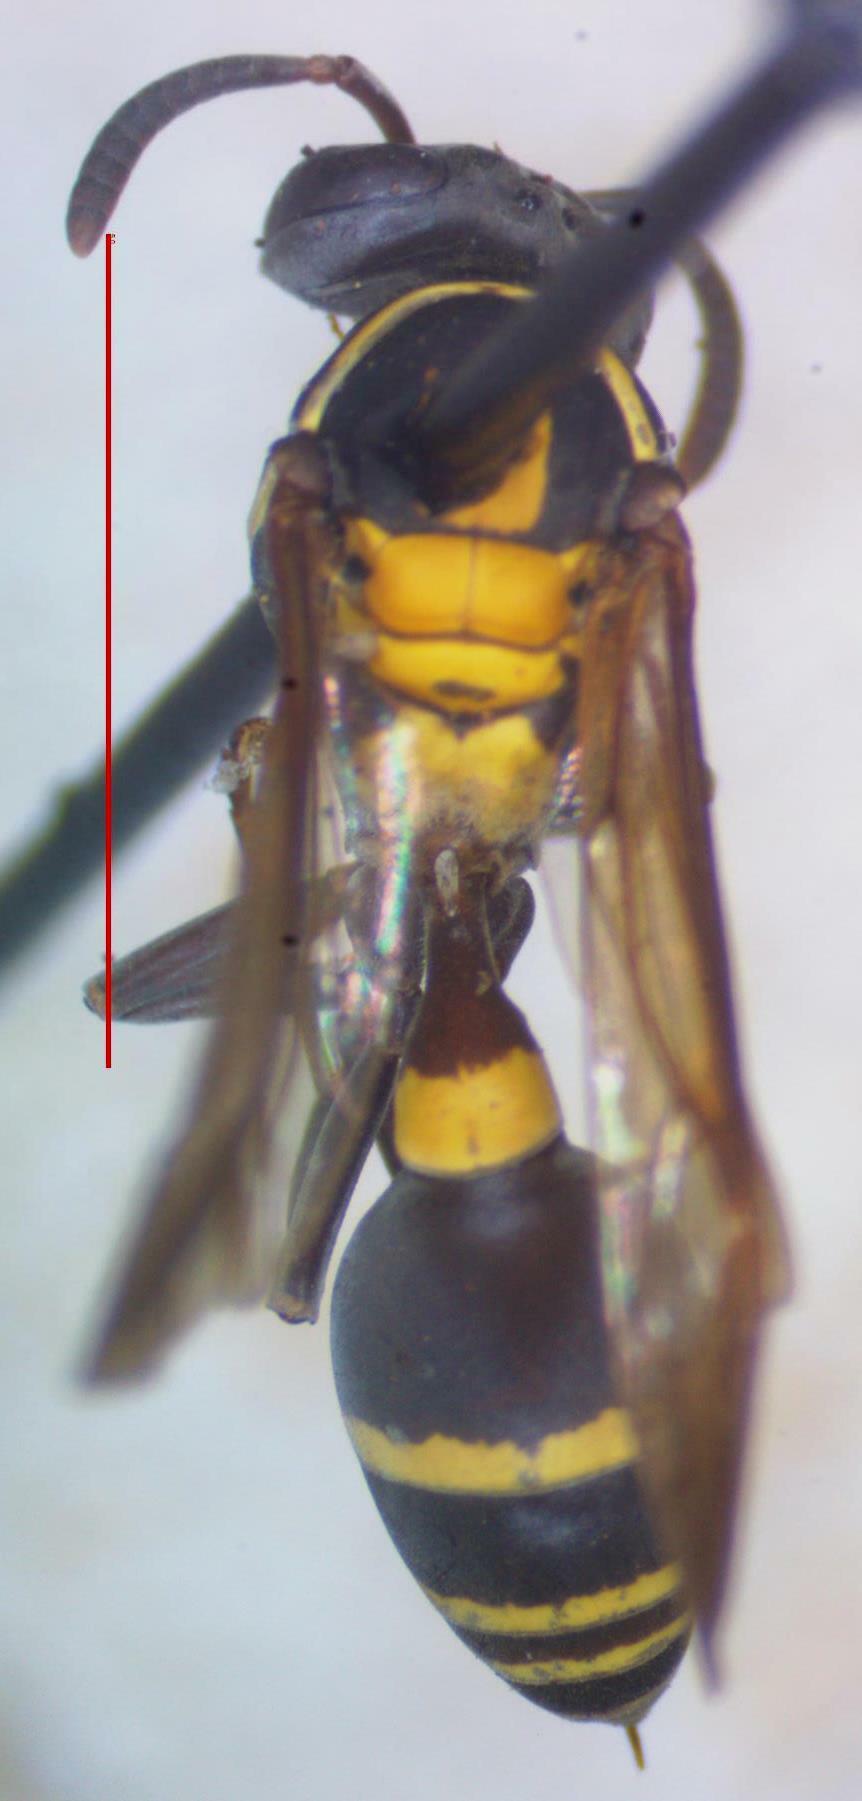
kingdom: Animalia
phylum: Arthropoda
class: Insecta
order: Hymenoptera
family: Eumenidae
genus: Polybia
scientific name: Polybia occidentalis
